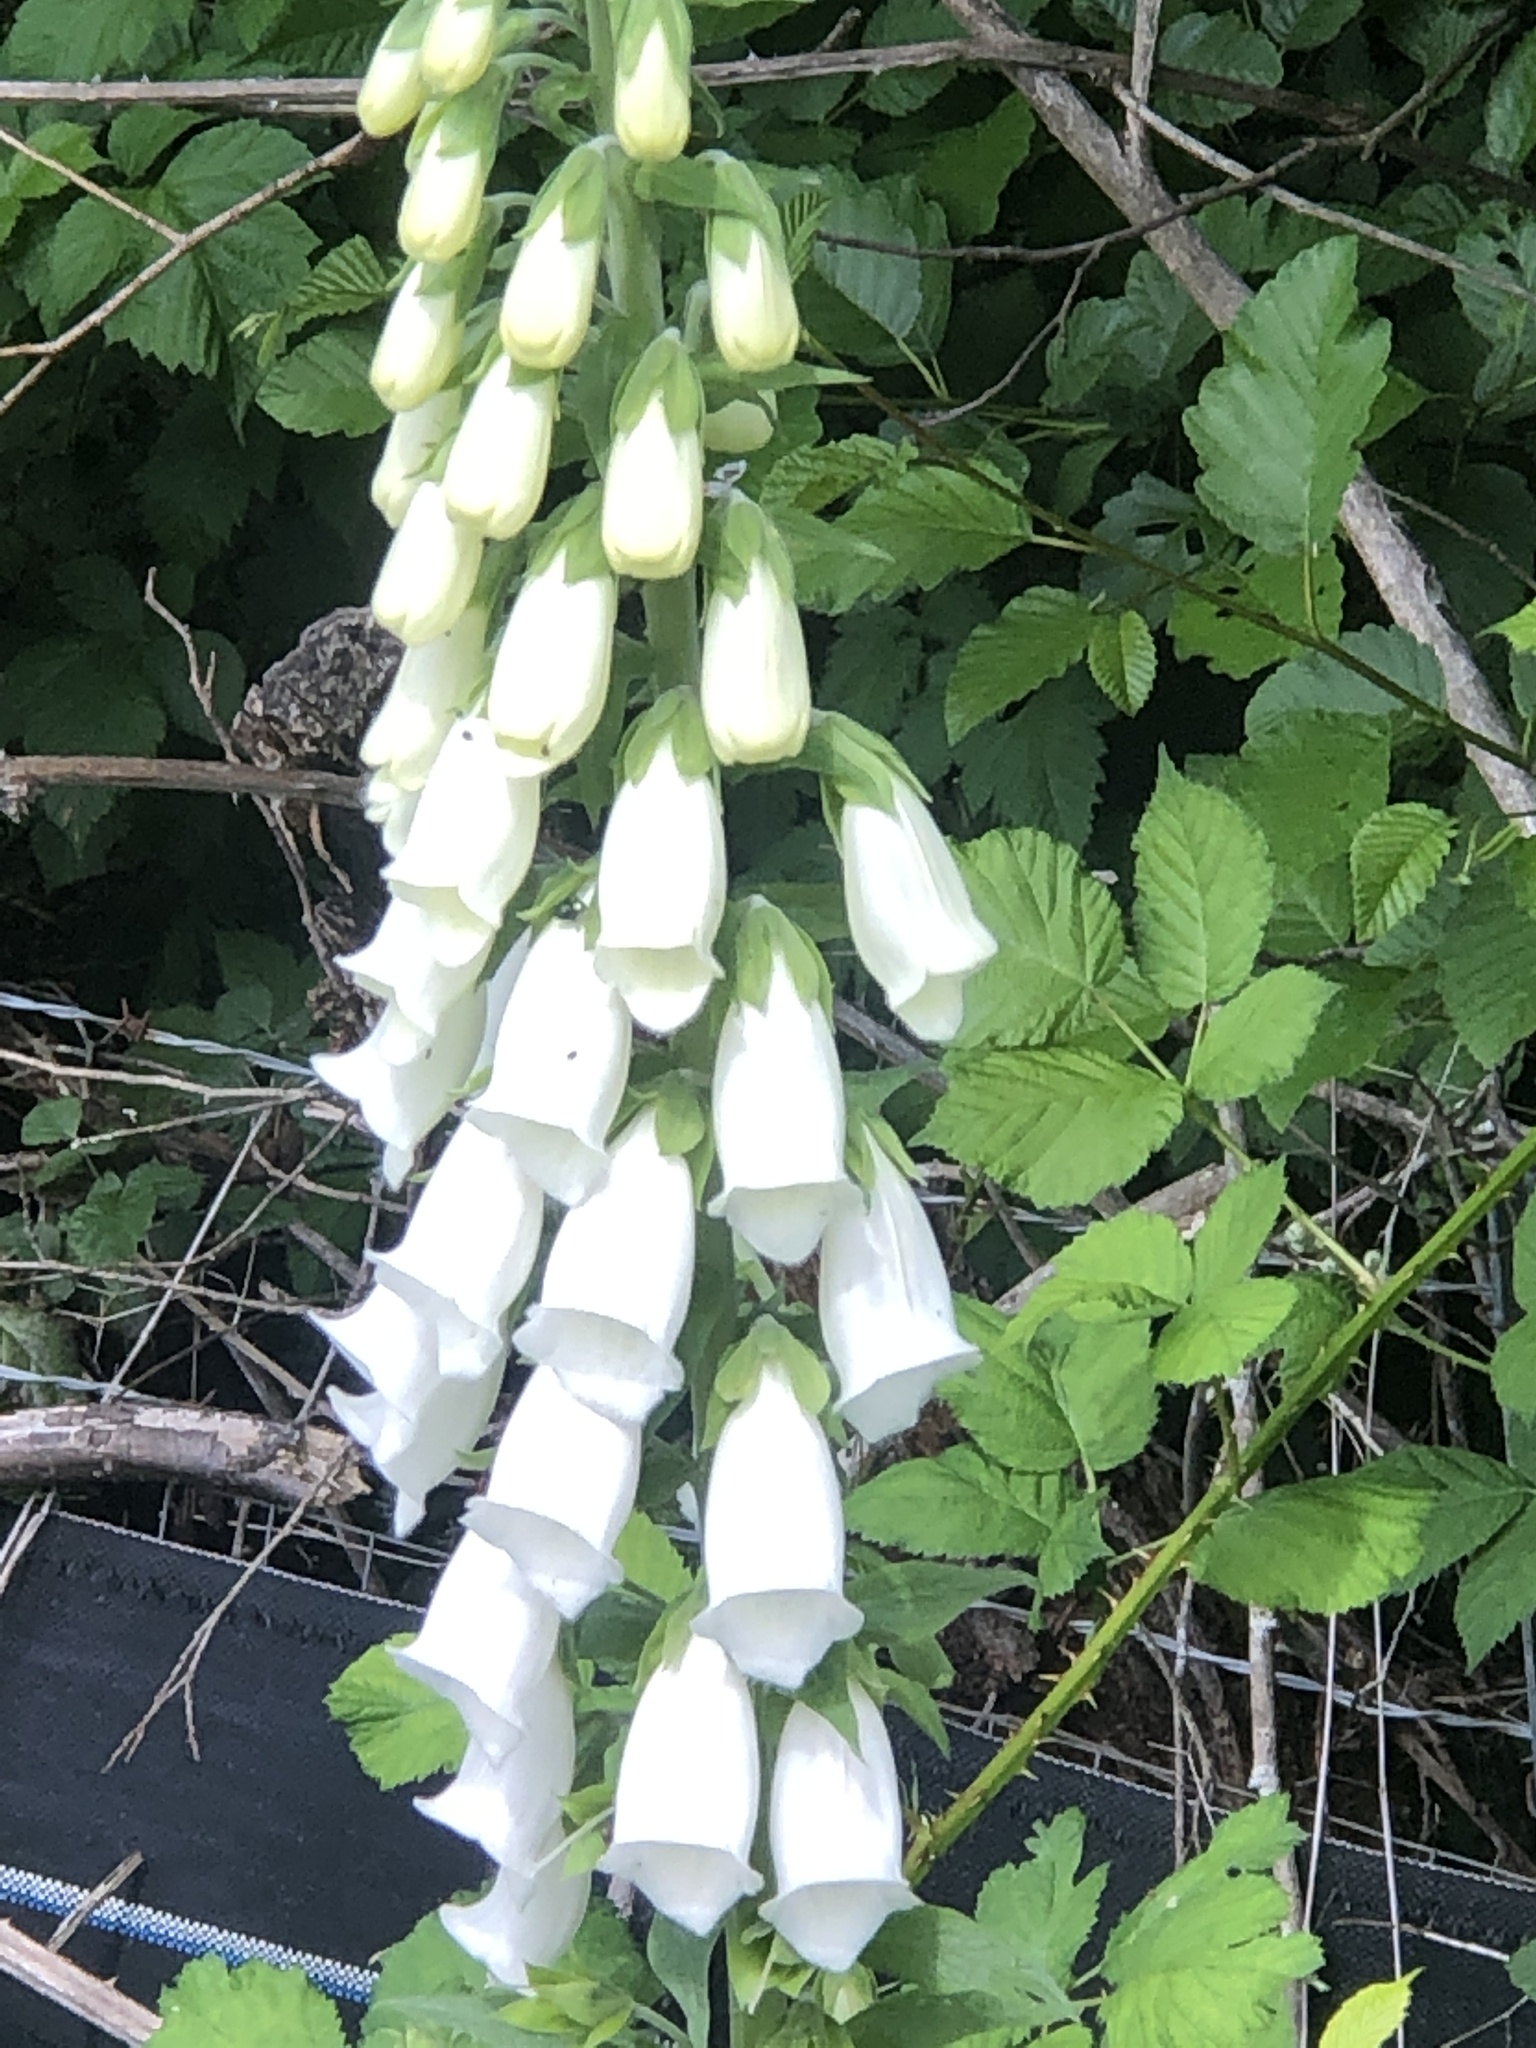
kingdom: Plantae
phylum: Tracheophyta
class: Magnoliopsida
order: Lamiales
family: Plantaginaceae
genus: Digitalis
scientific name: Digitalis purpurea
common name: Foxglove
